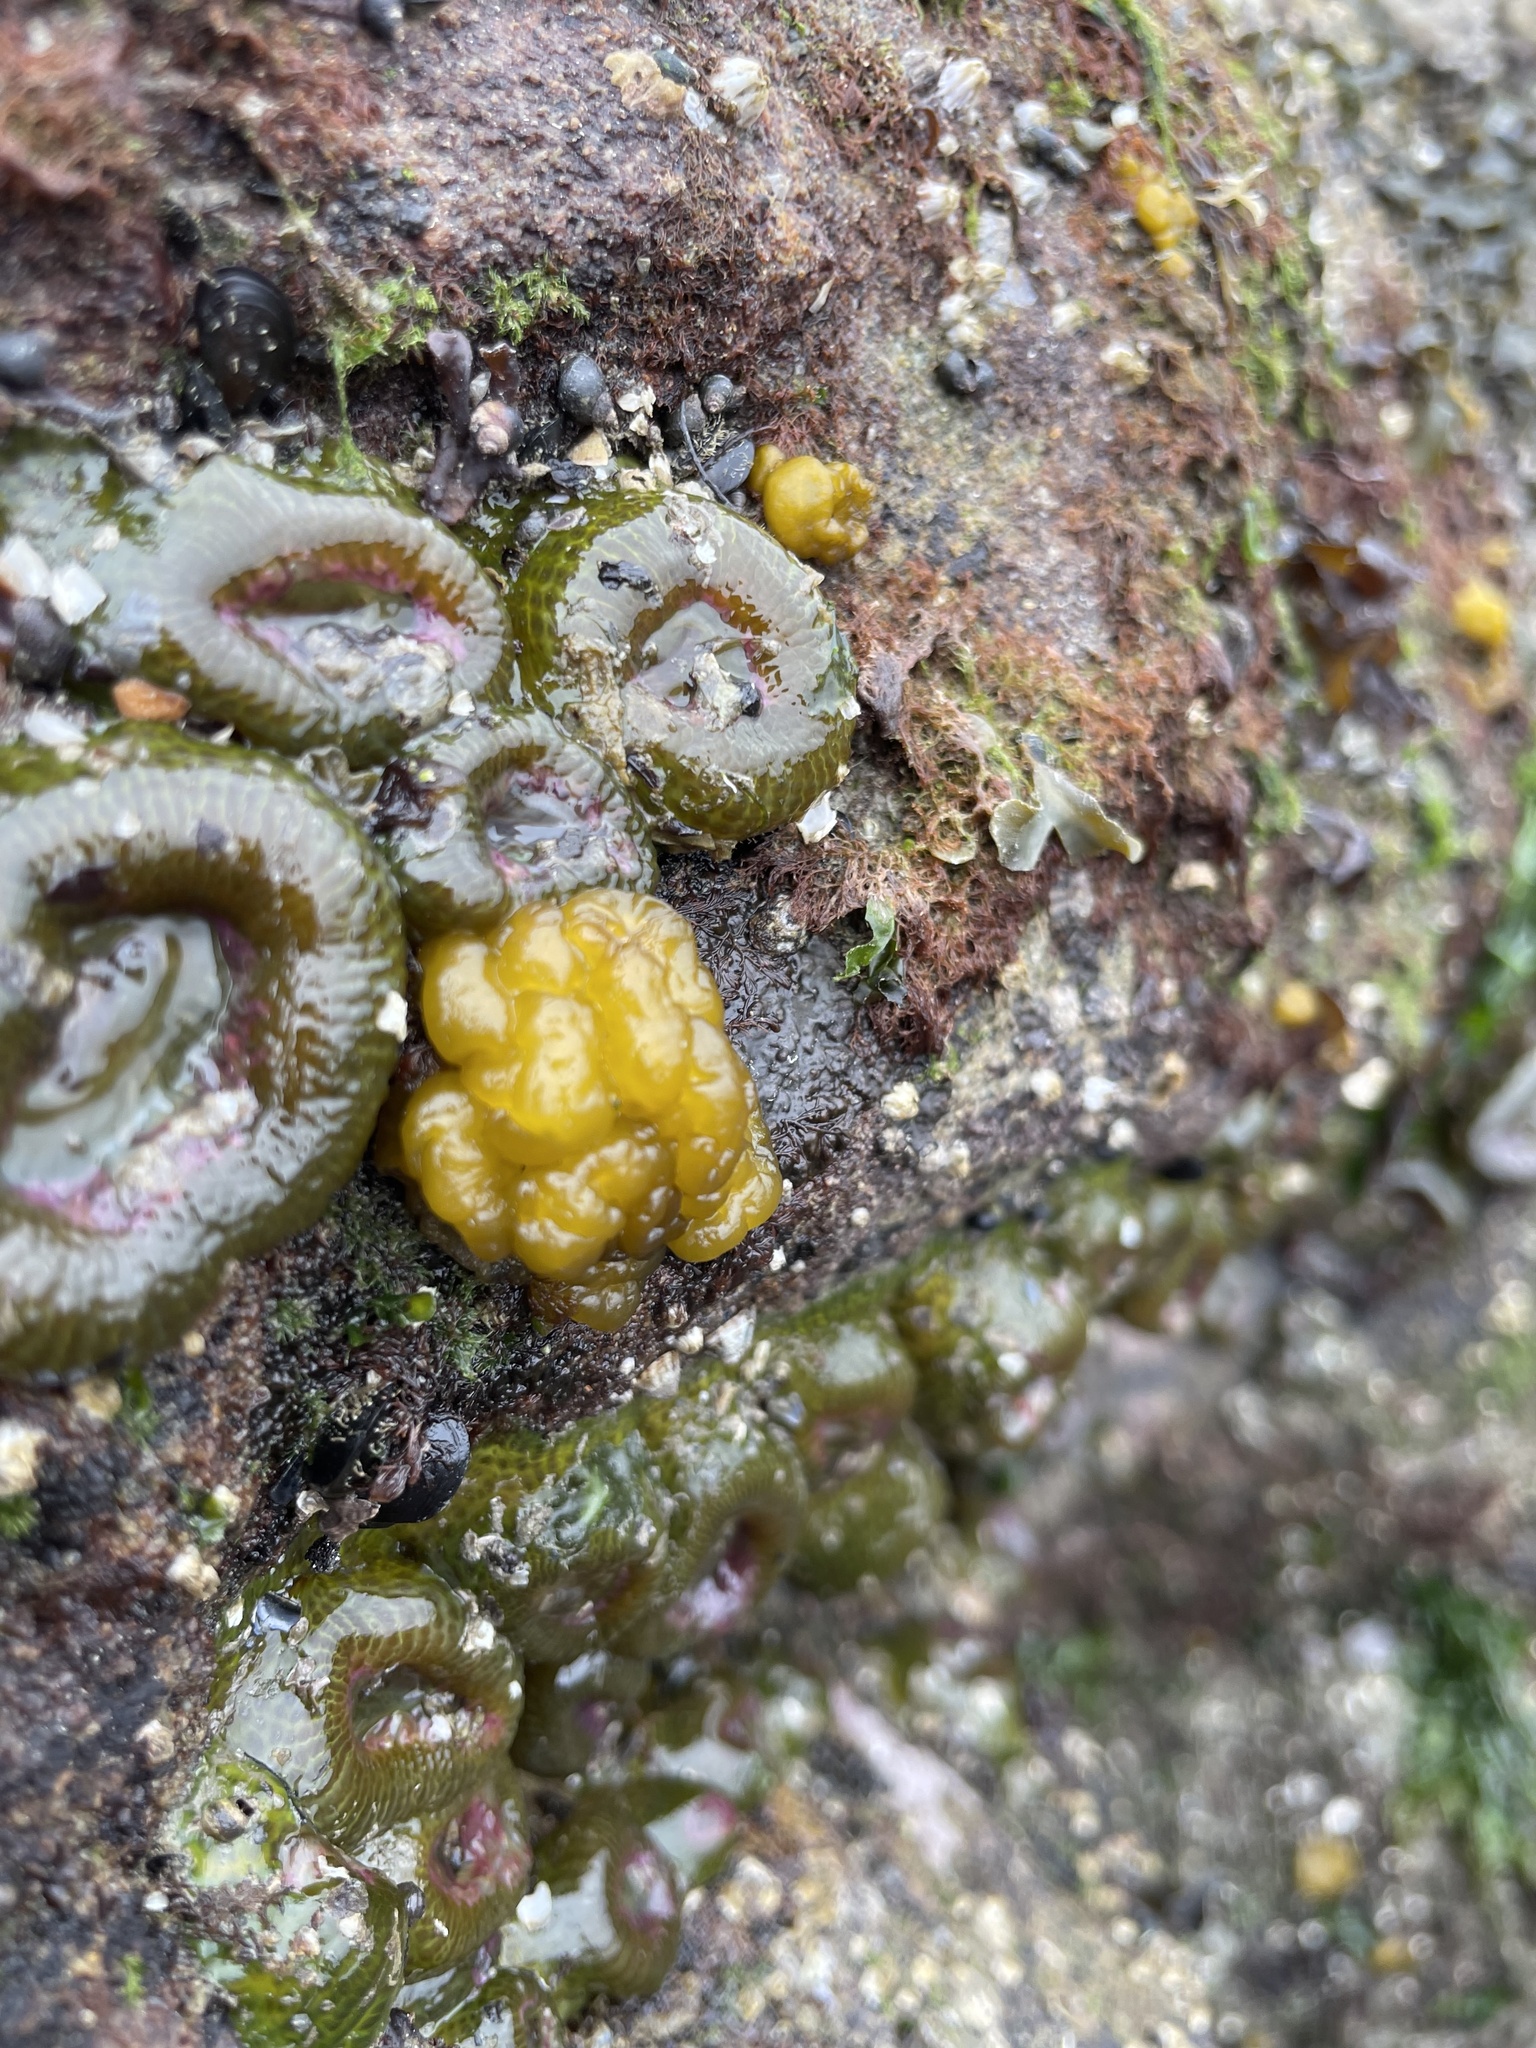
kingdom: Chromista
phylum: Ochrophyta
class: Phaeophyceae
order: Ectocarpales
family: Chordariaceae
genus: Leathesia
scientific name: Leathesia marina
